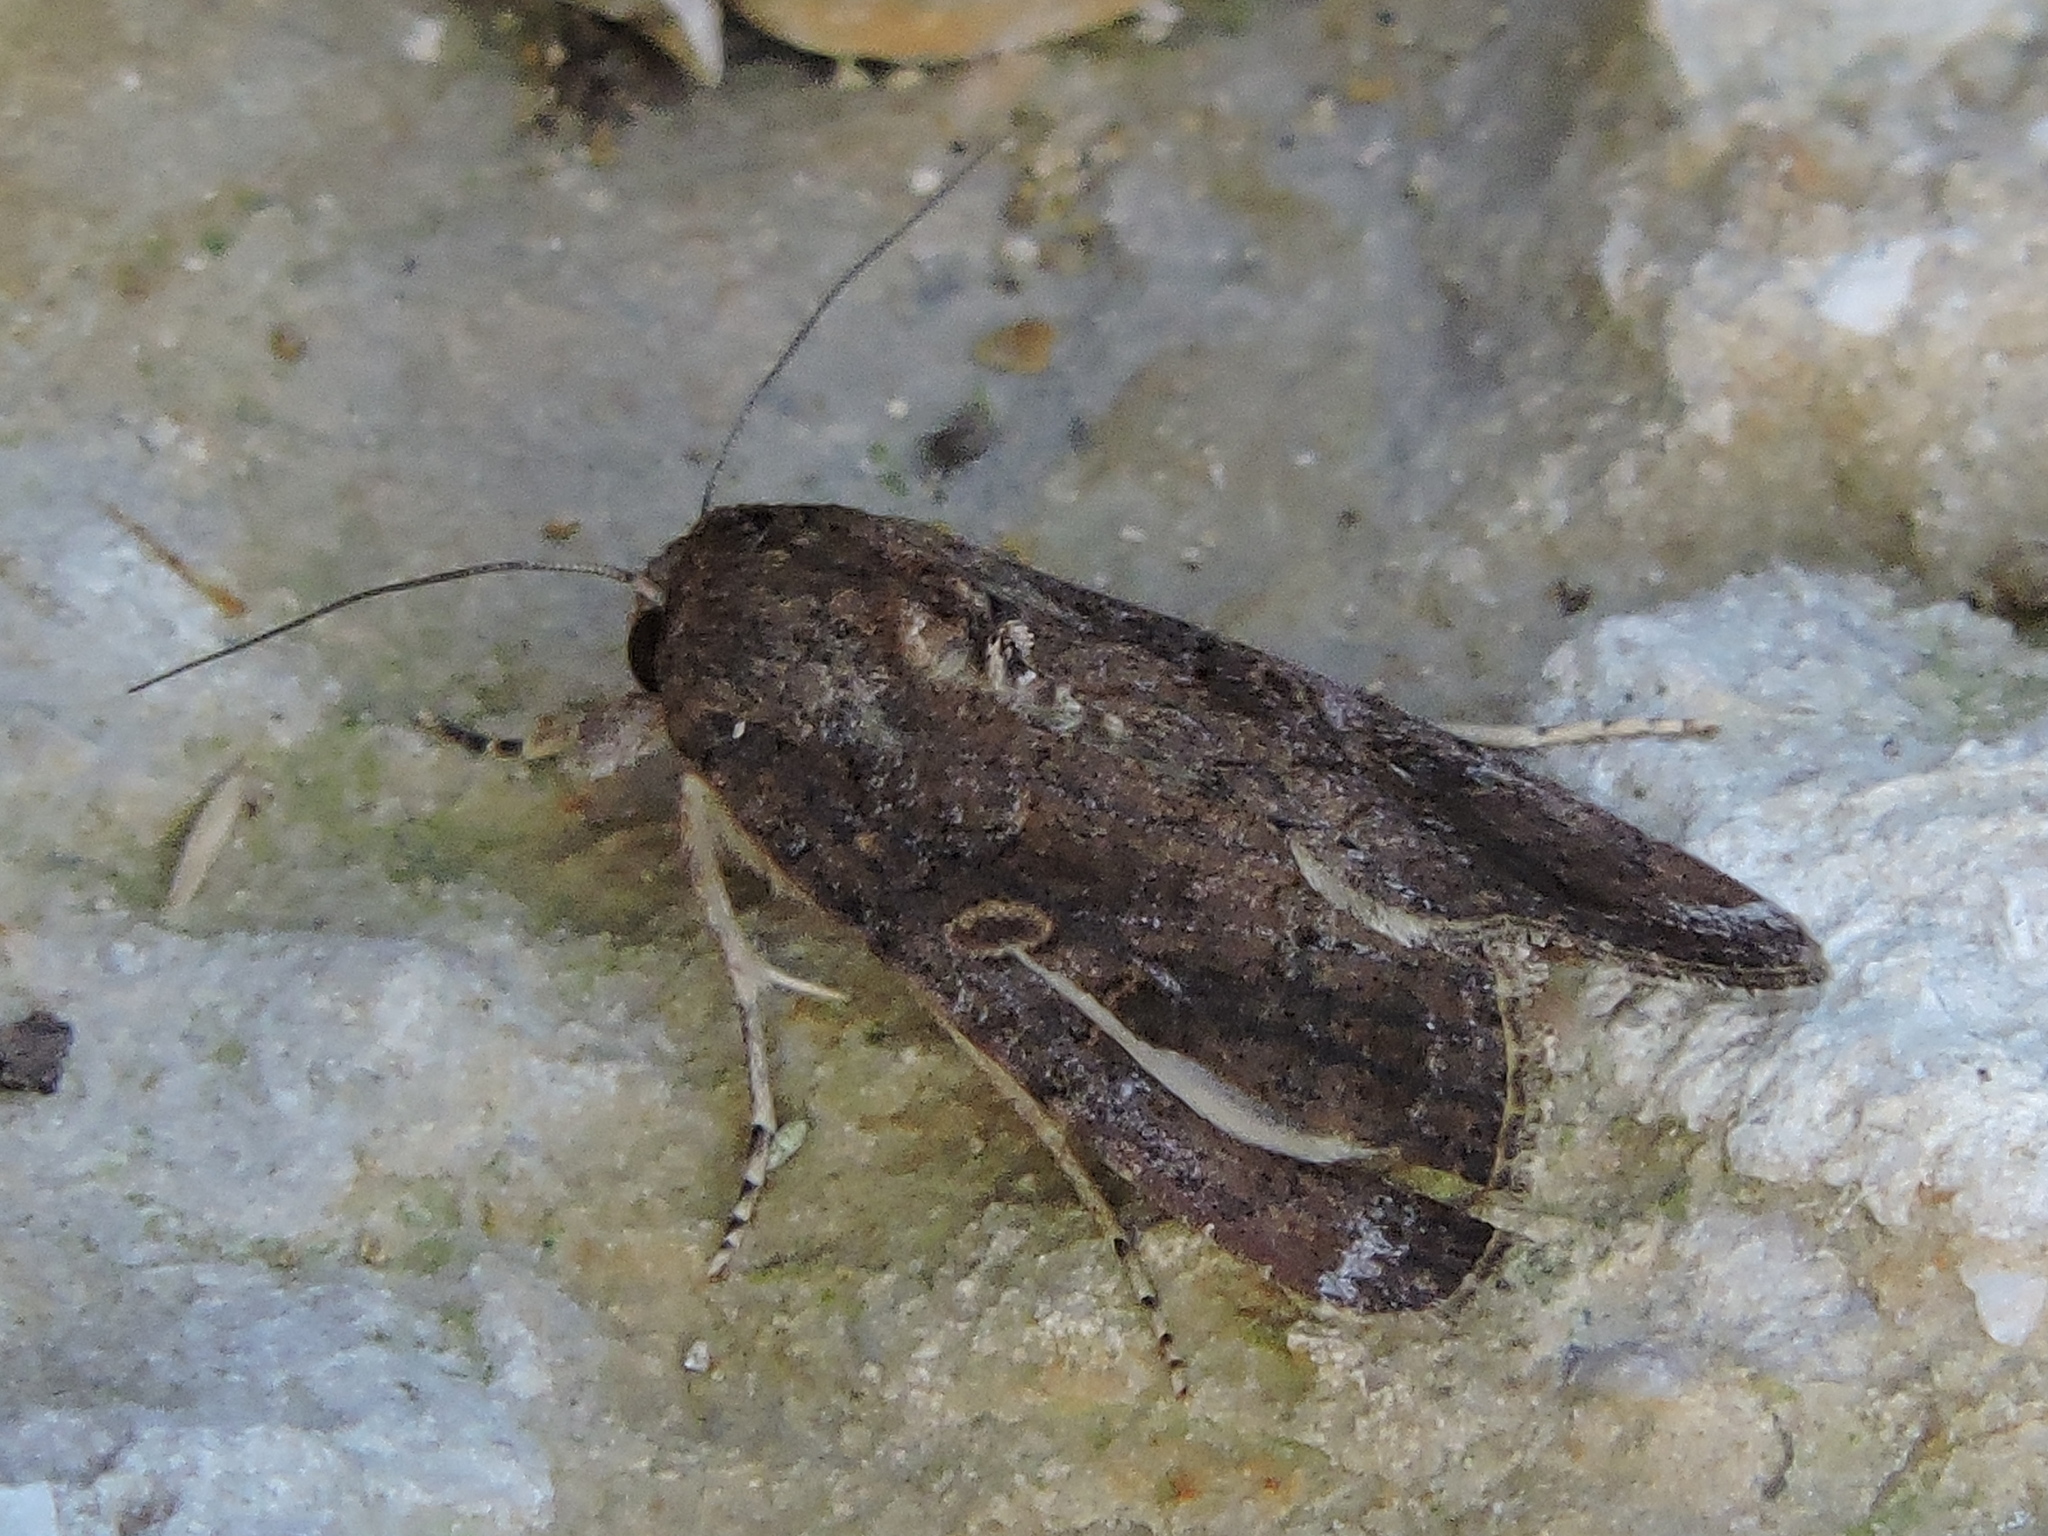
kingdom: Animalia
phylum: Arthropoda
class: Insecta
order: Lepidoptera
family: Noctuidae
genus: Spodoptera
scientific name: Spodoptera frugiperda
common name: Fall armyworm
